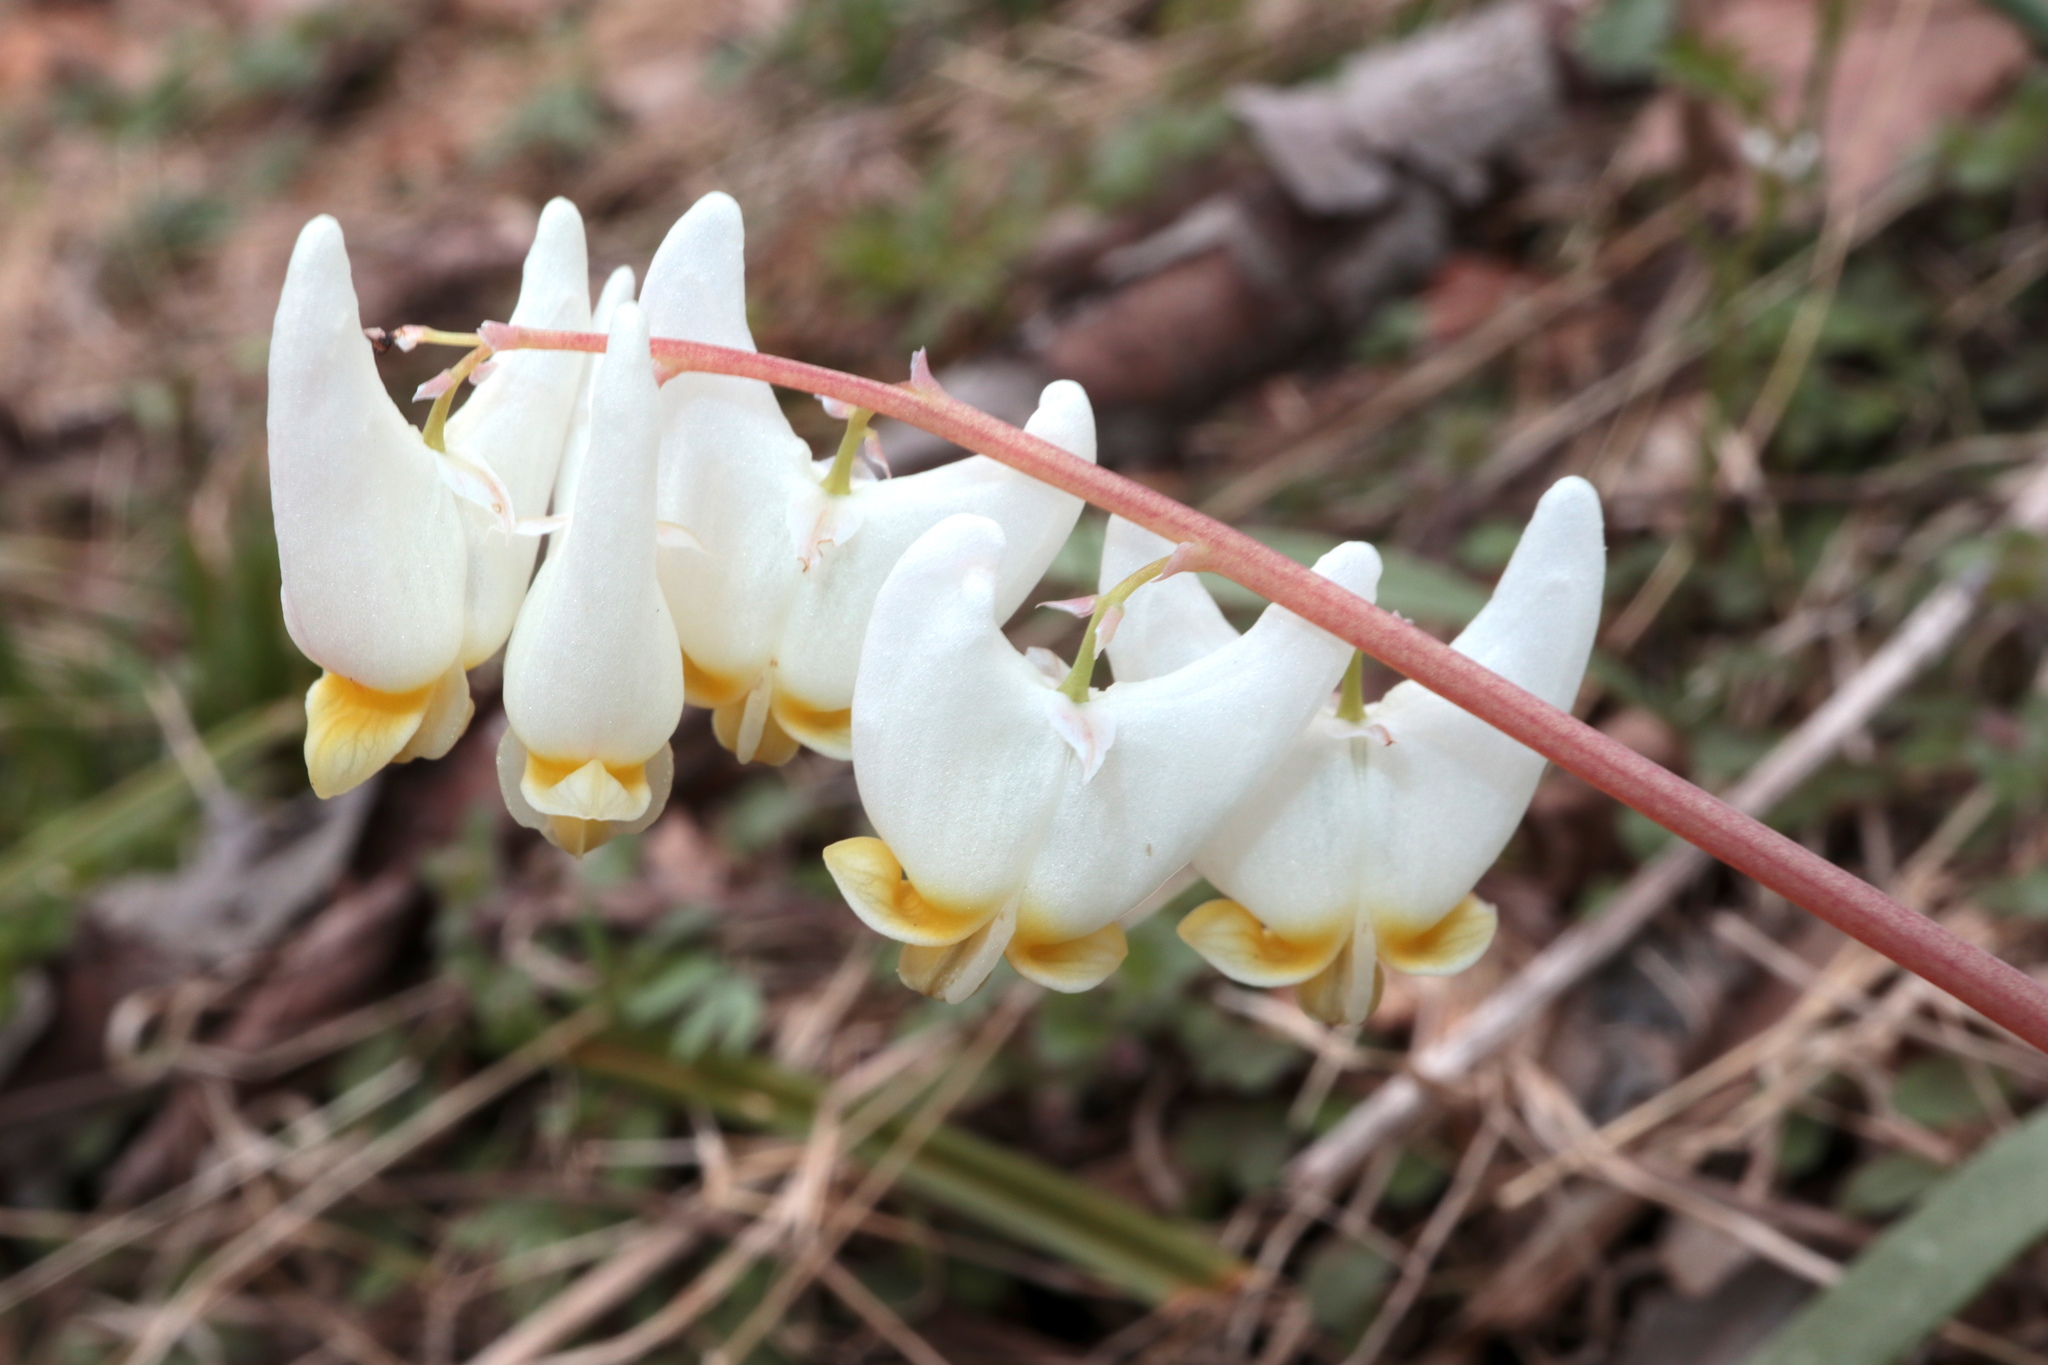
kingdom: Plantae
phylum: Tracheophyta
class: Magnoliopsida
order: Ranunculales
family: Papaveraceae
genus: Dicentra
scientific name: Dicentra cucullaria
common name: Dutchman's breeches
